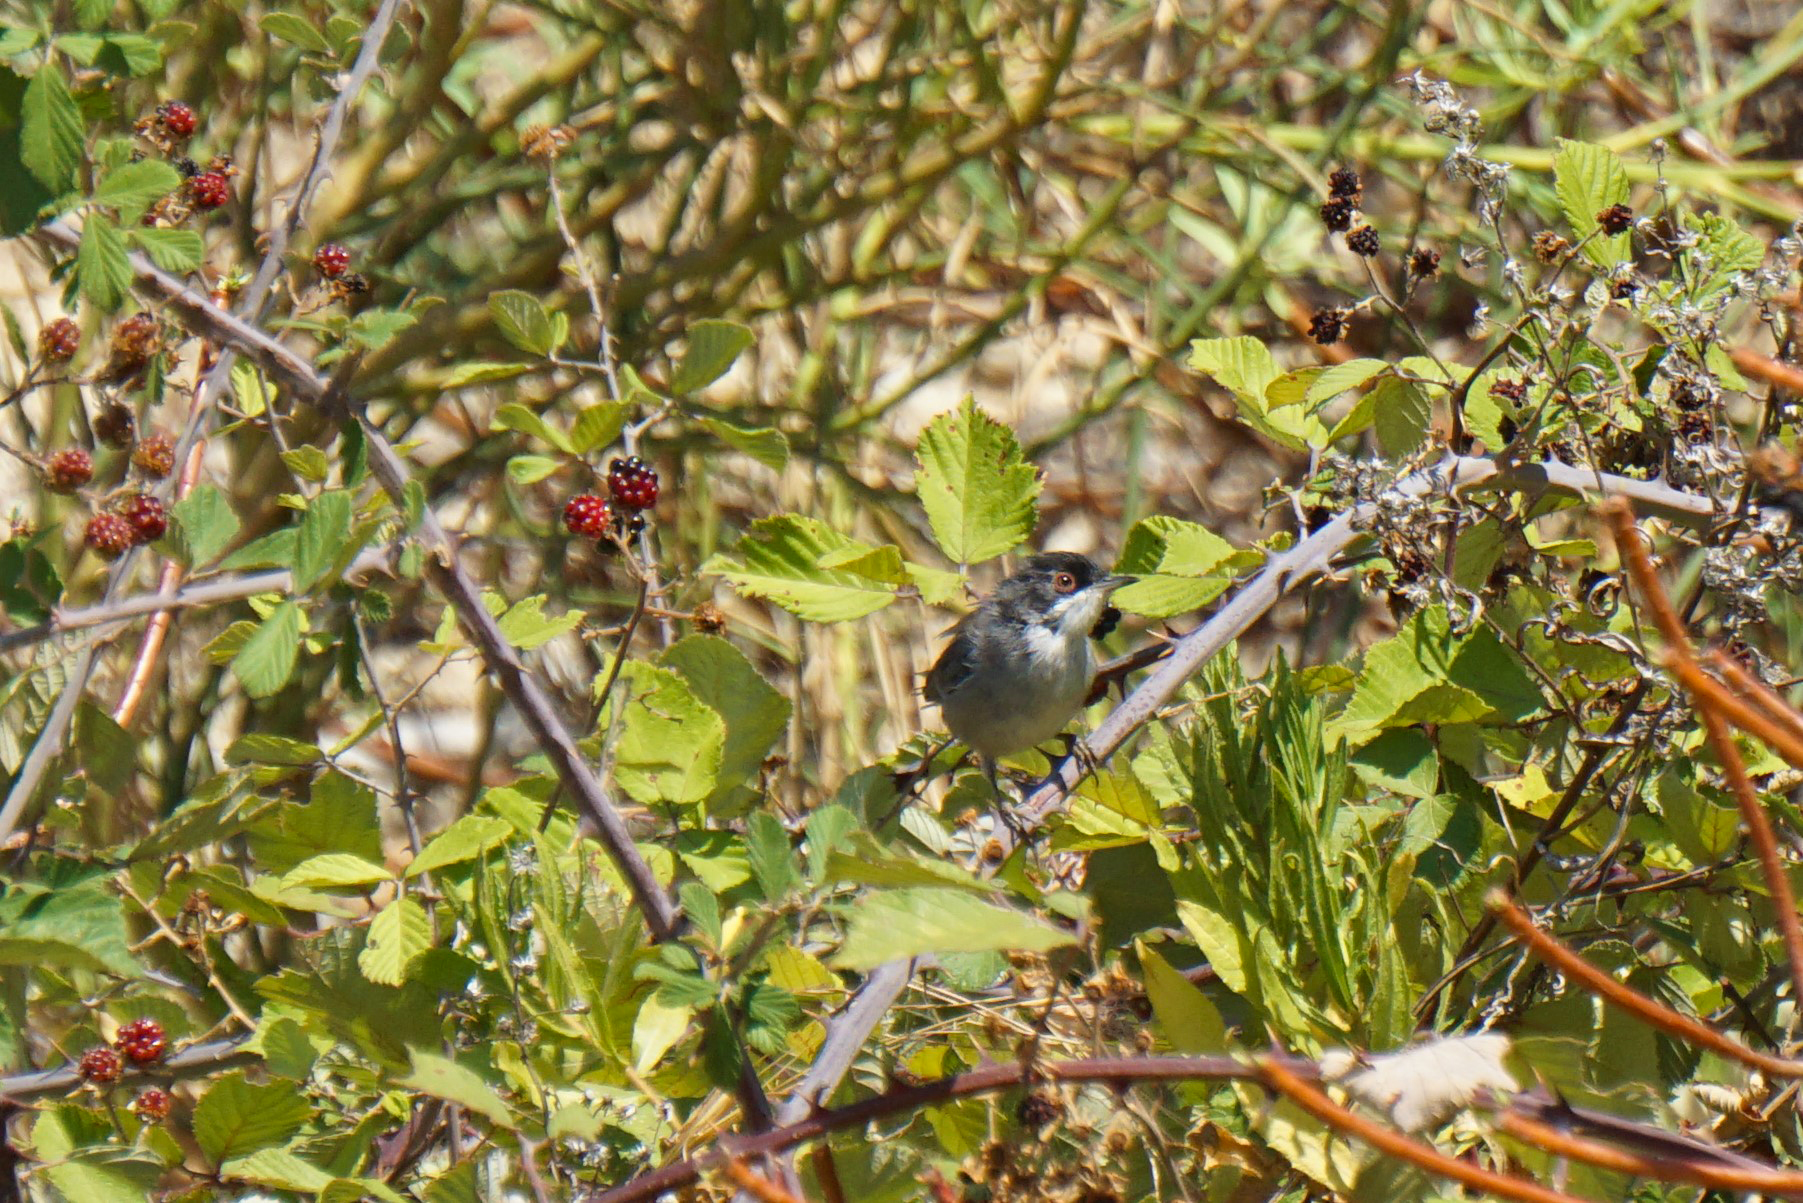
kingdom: Animalia
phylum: Chordata
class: Aves
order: Passeriformes
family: Sylviidae
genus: Curruca
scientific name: Curruca melanocephala
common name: Sardinian warbler
